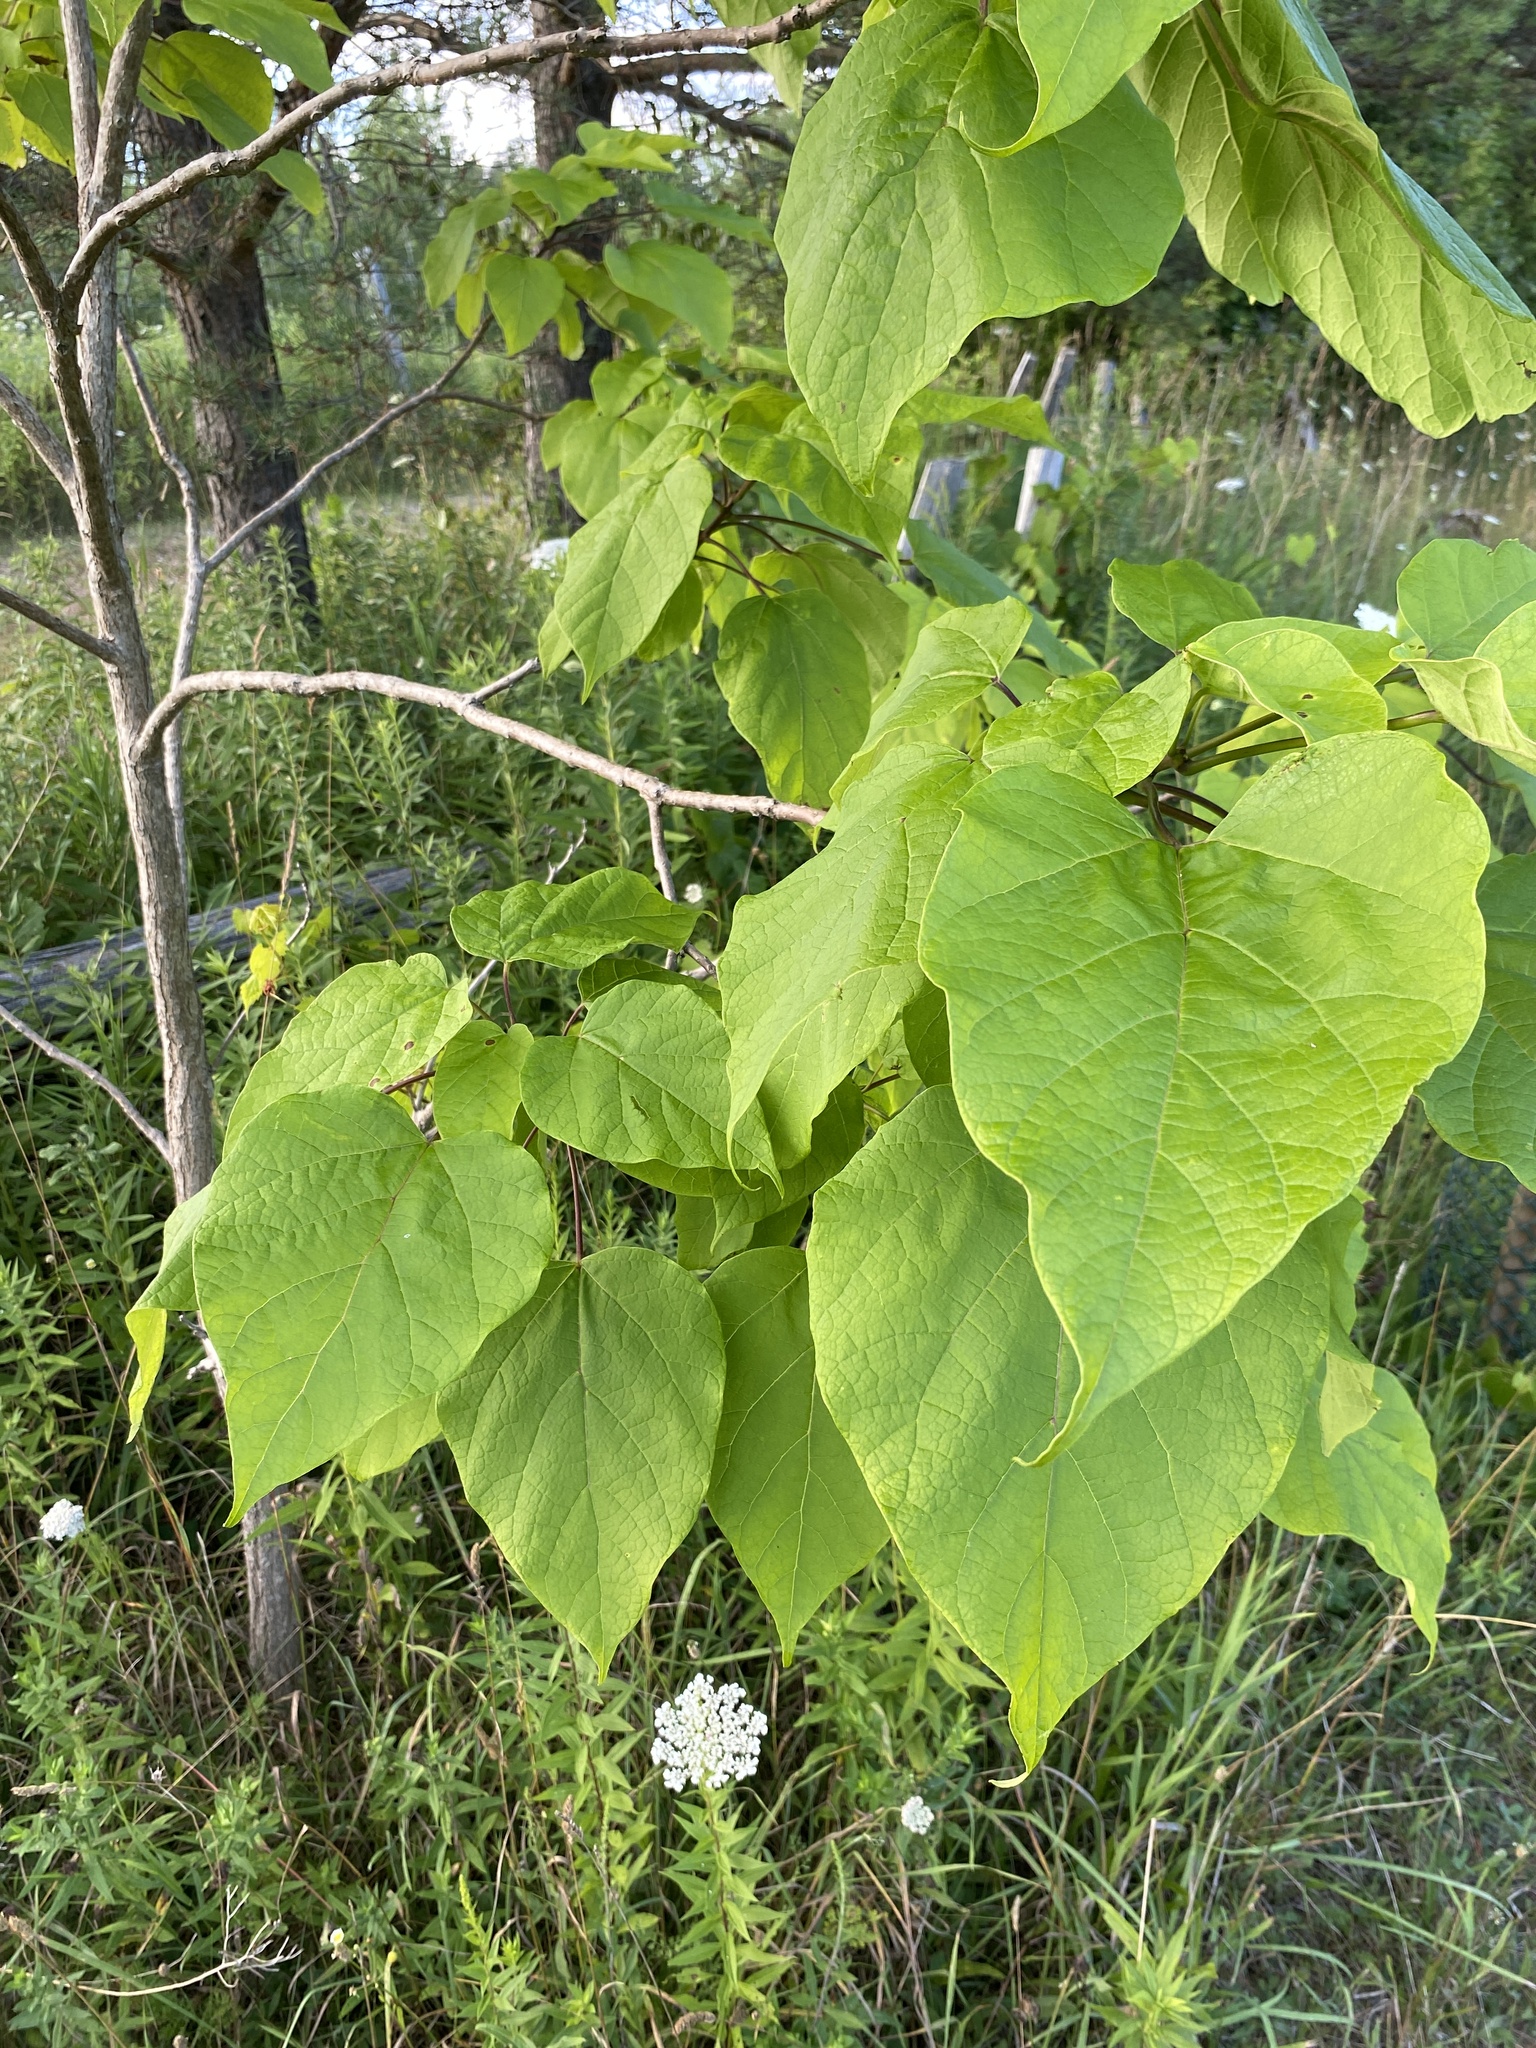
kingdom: Plantae
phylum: Tracheophyta
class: Magnoliopsida
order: Lamiales
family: Bignoniaceae
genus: Catalpa
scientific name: Catalpa speciosa
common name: Northern catalpa
